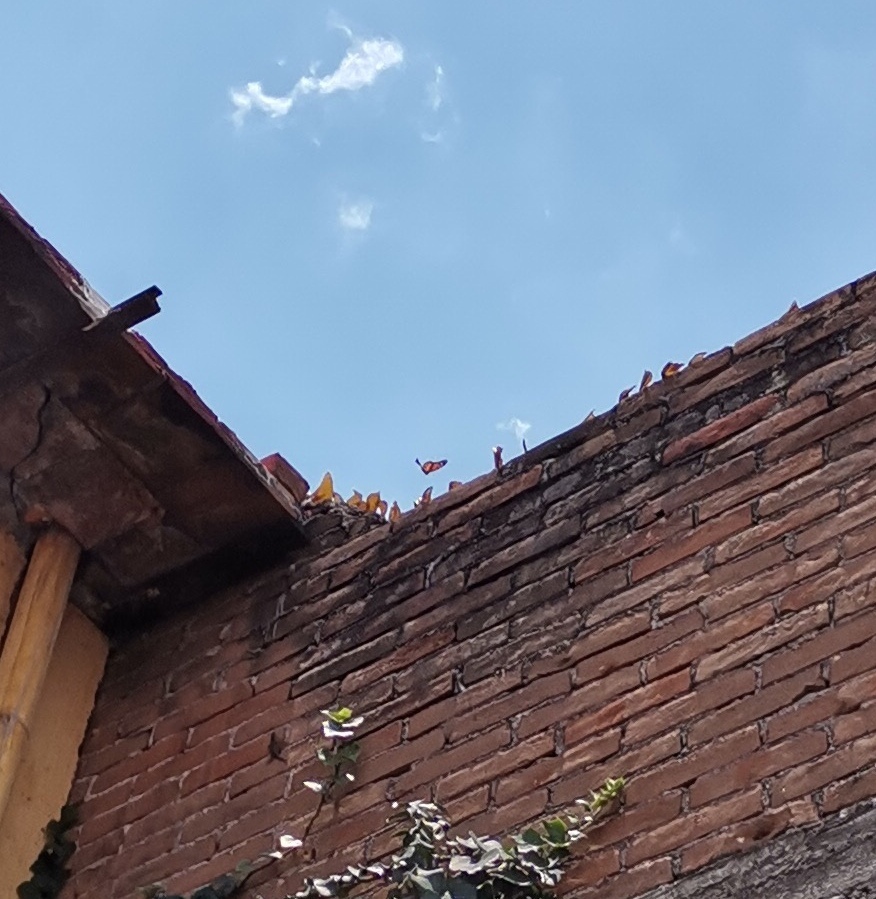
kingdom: Animalia
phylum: Arthropoda
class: Insecta
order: Lepidoptera
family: Nymphalidae
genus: Danaus
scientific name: Danaus plexippus
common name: Monarch
